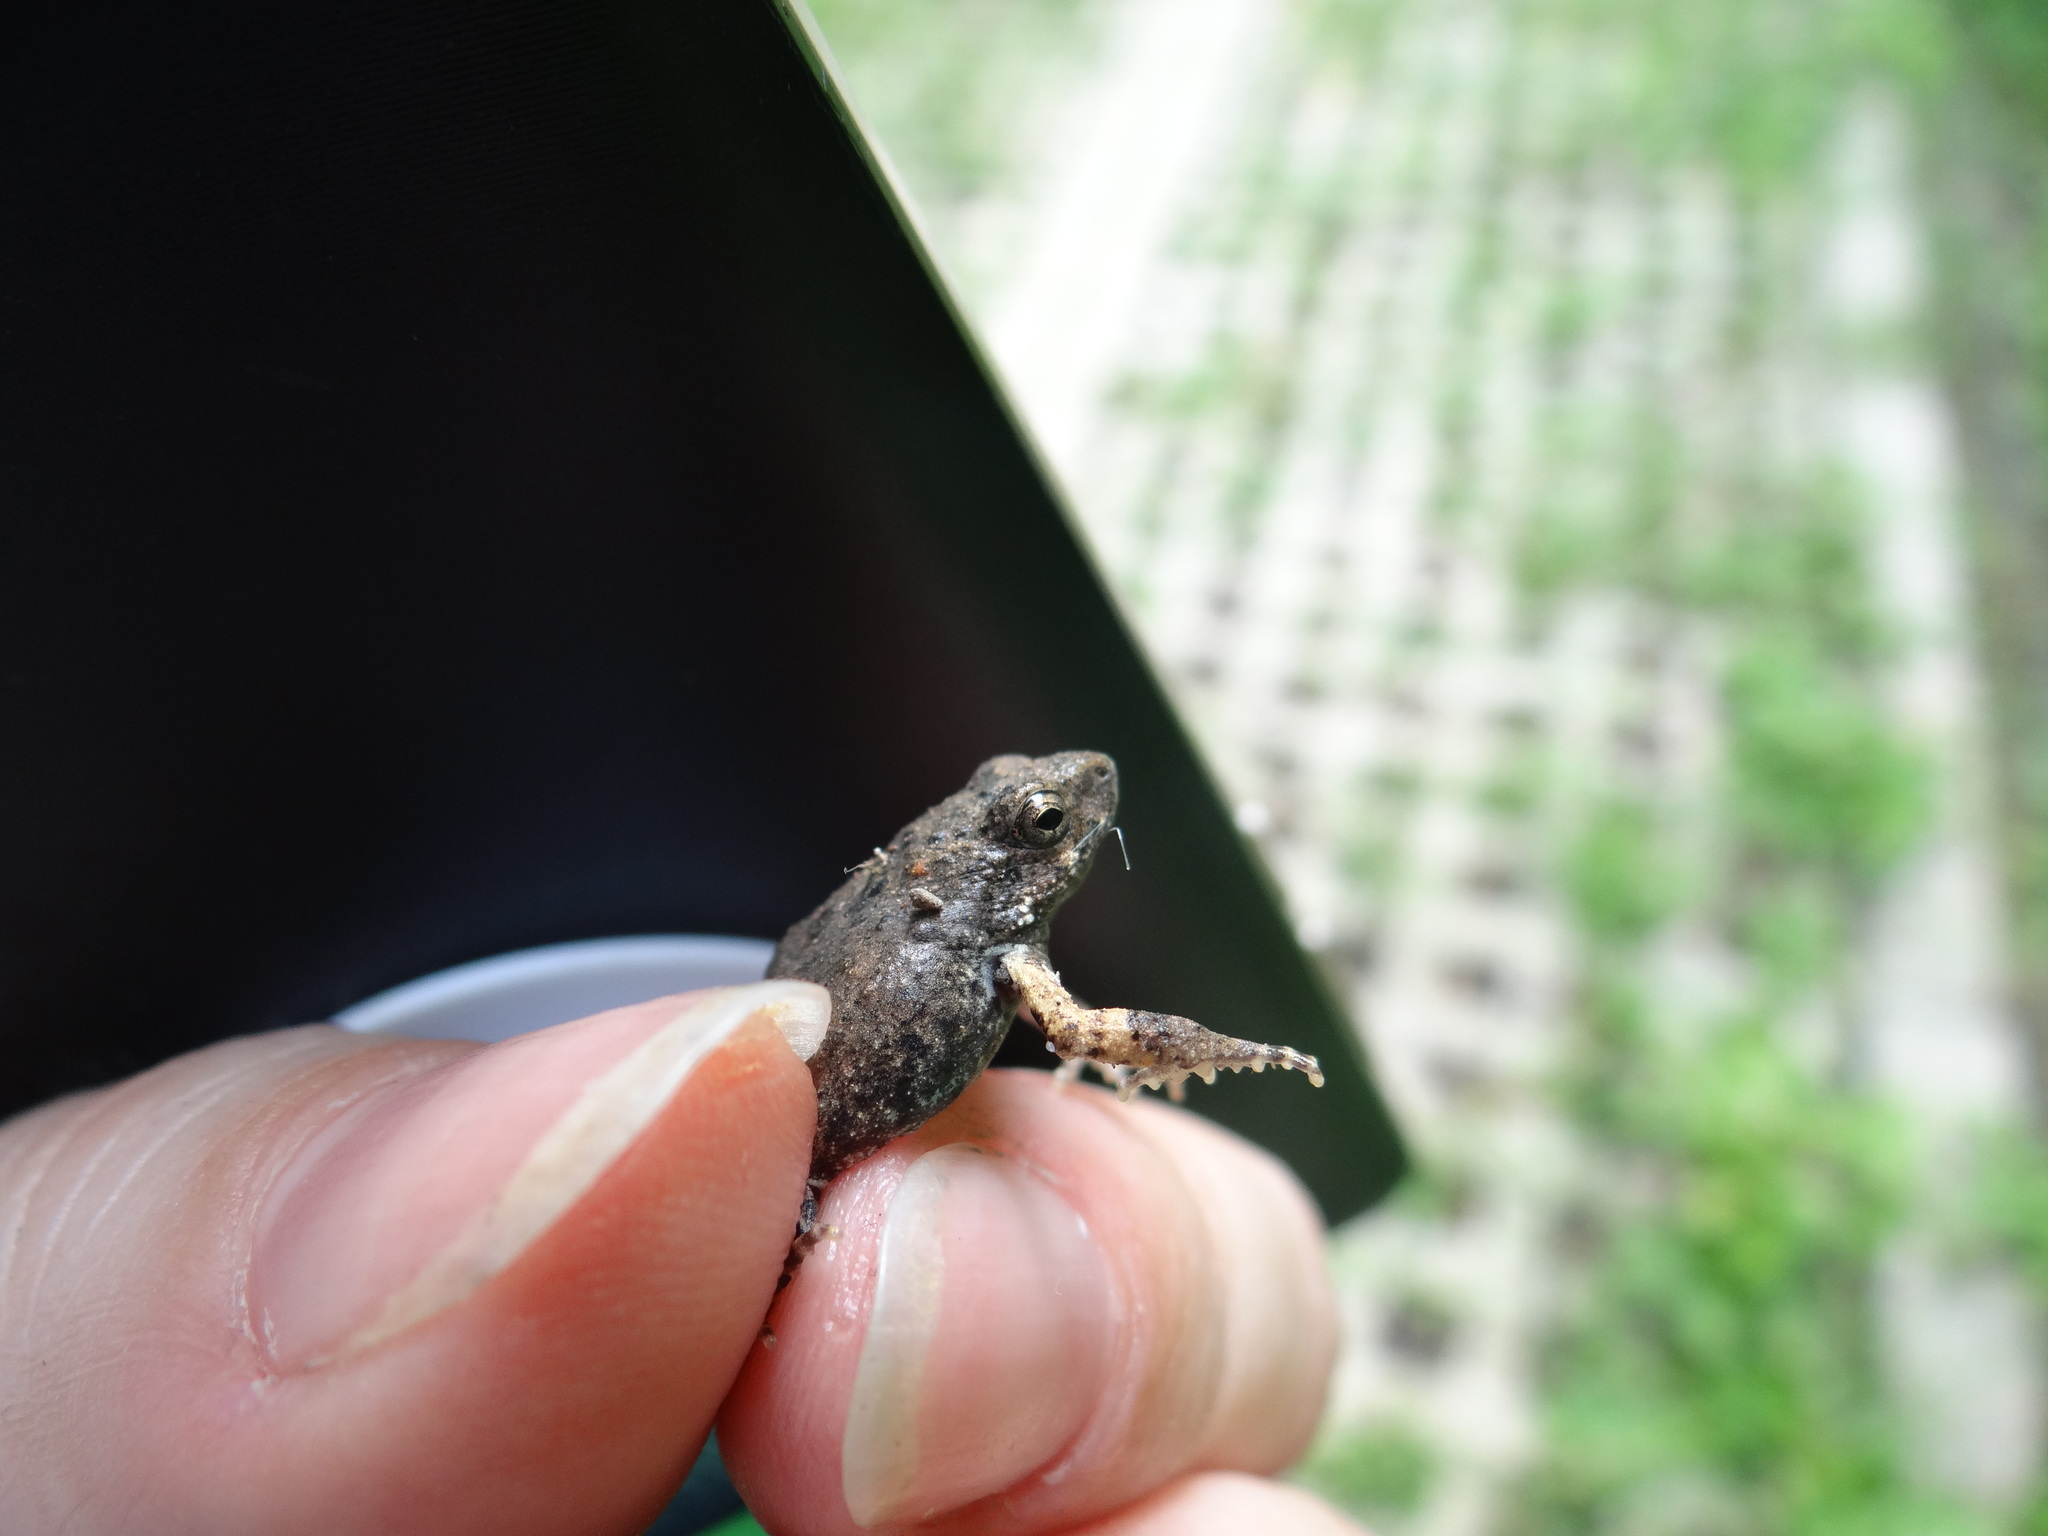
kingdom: Animalia
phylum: Chordata
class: Amphibia
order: Anura
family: Leptodactylidae
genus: Engystomops
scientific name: Engystomops pustulosus
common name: Tungara frog
